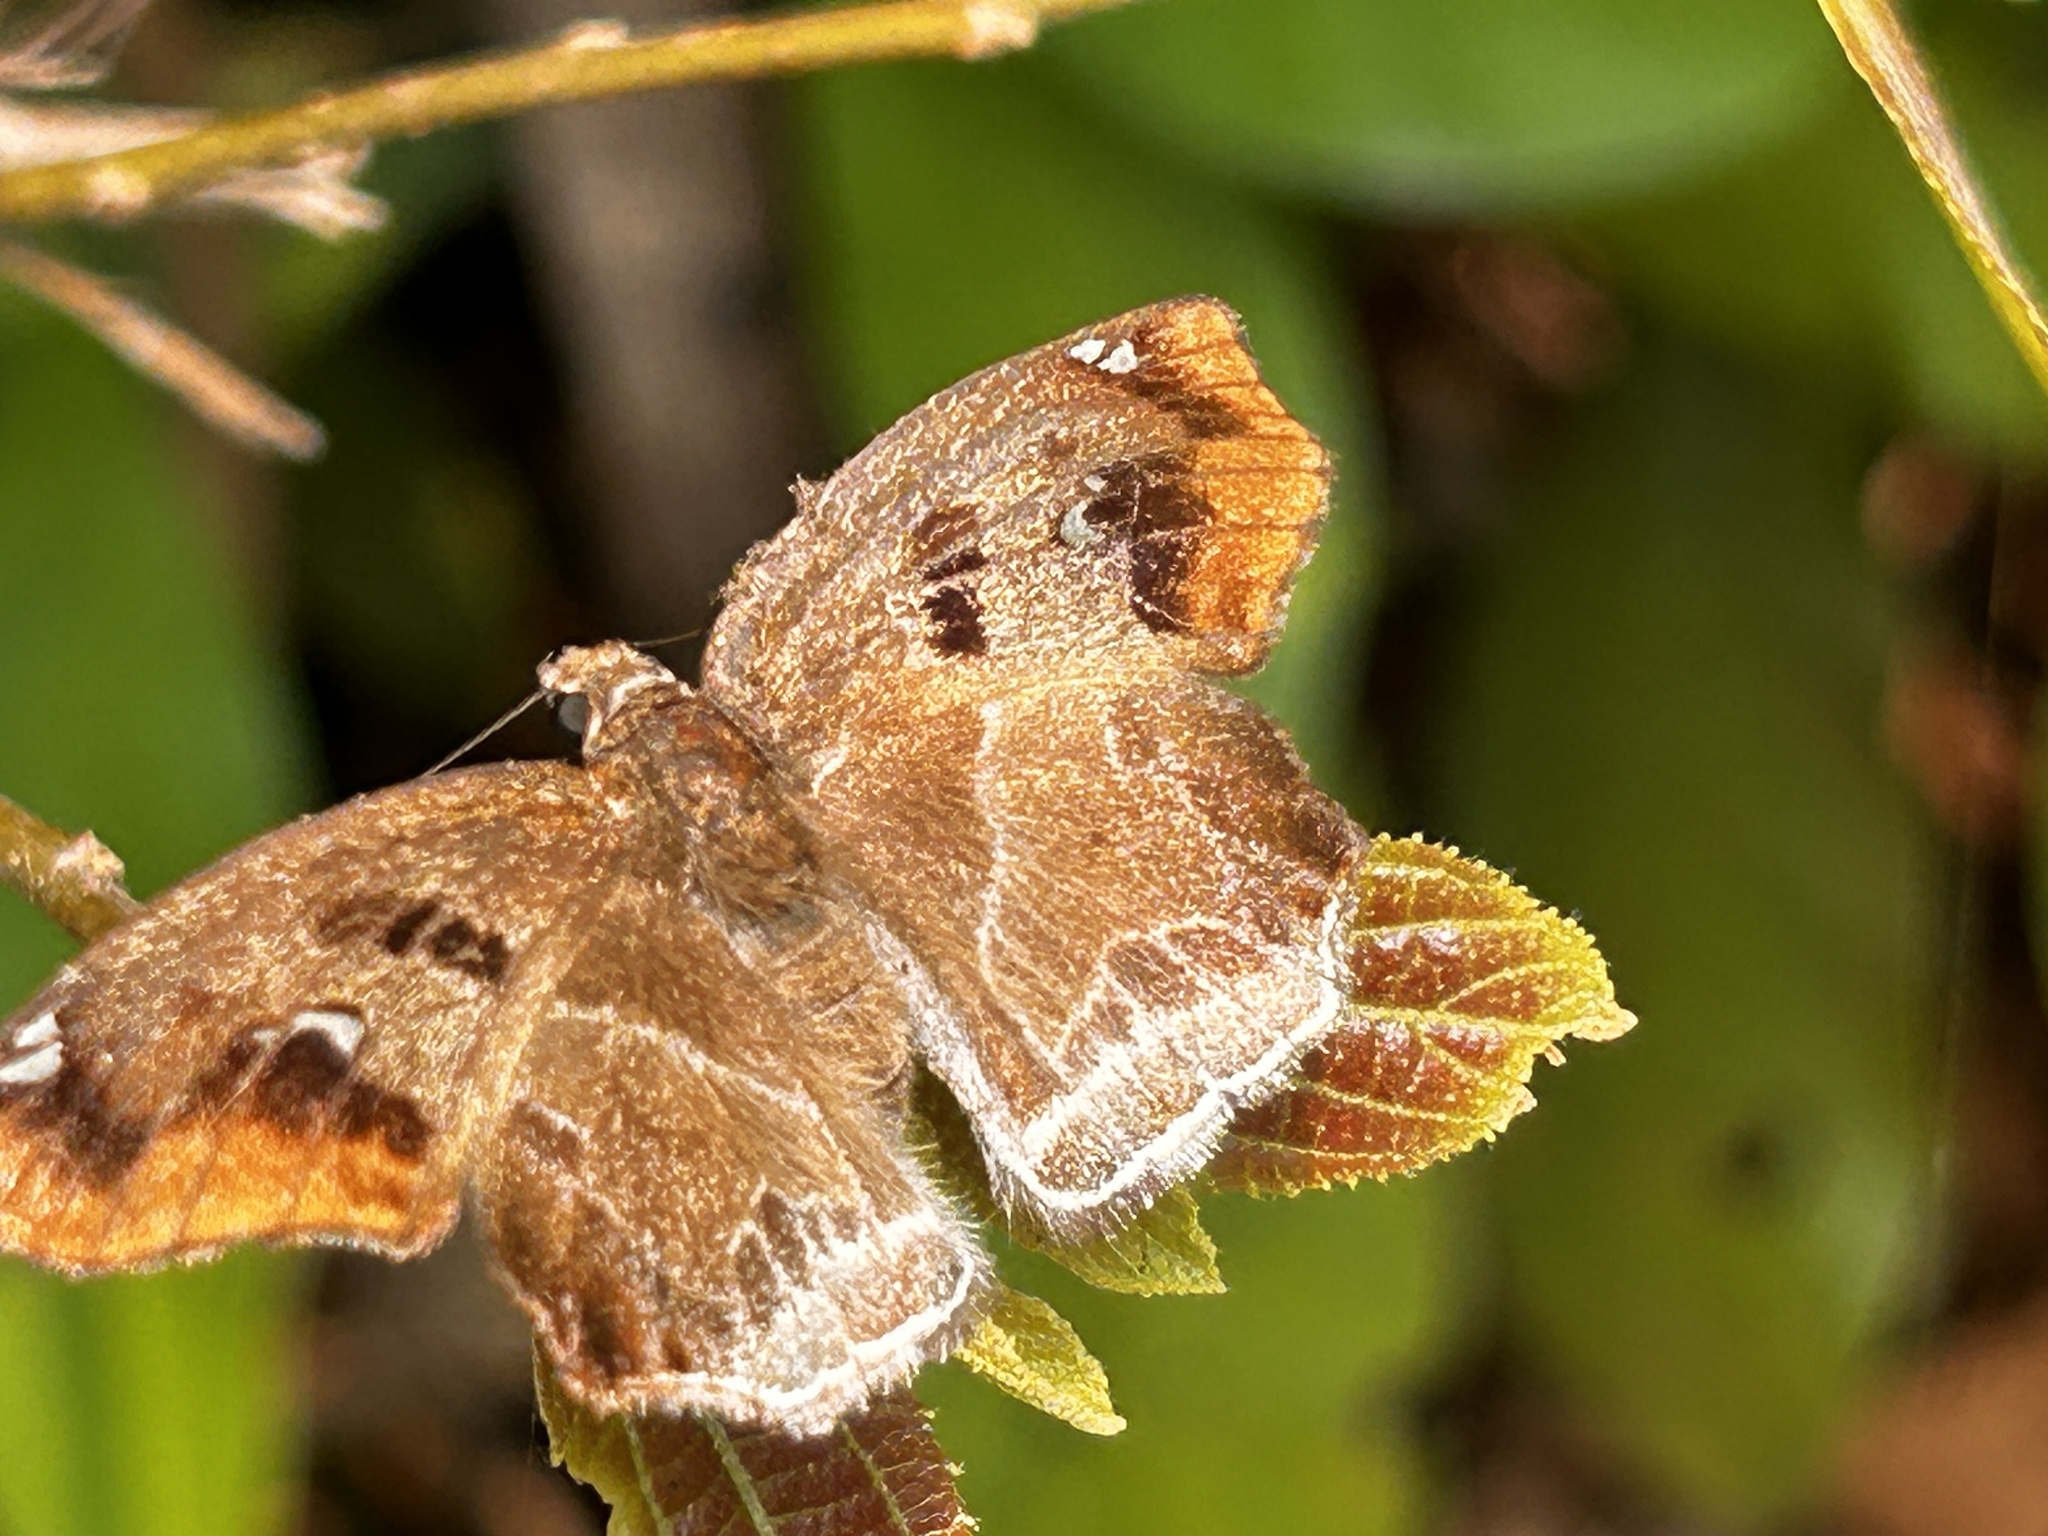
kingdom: Animalia
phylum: Arthropoda
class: Insecta
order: Lepidoptera
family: Hesperiidae
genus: Odontoptilum
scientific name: Odontoptilum angulata
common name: Chestnut banded angle
